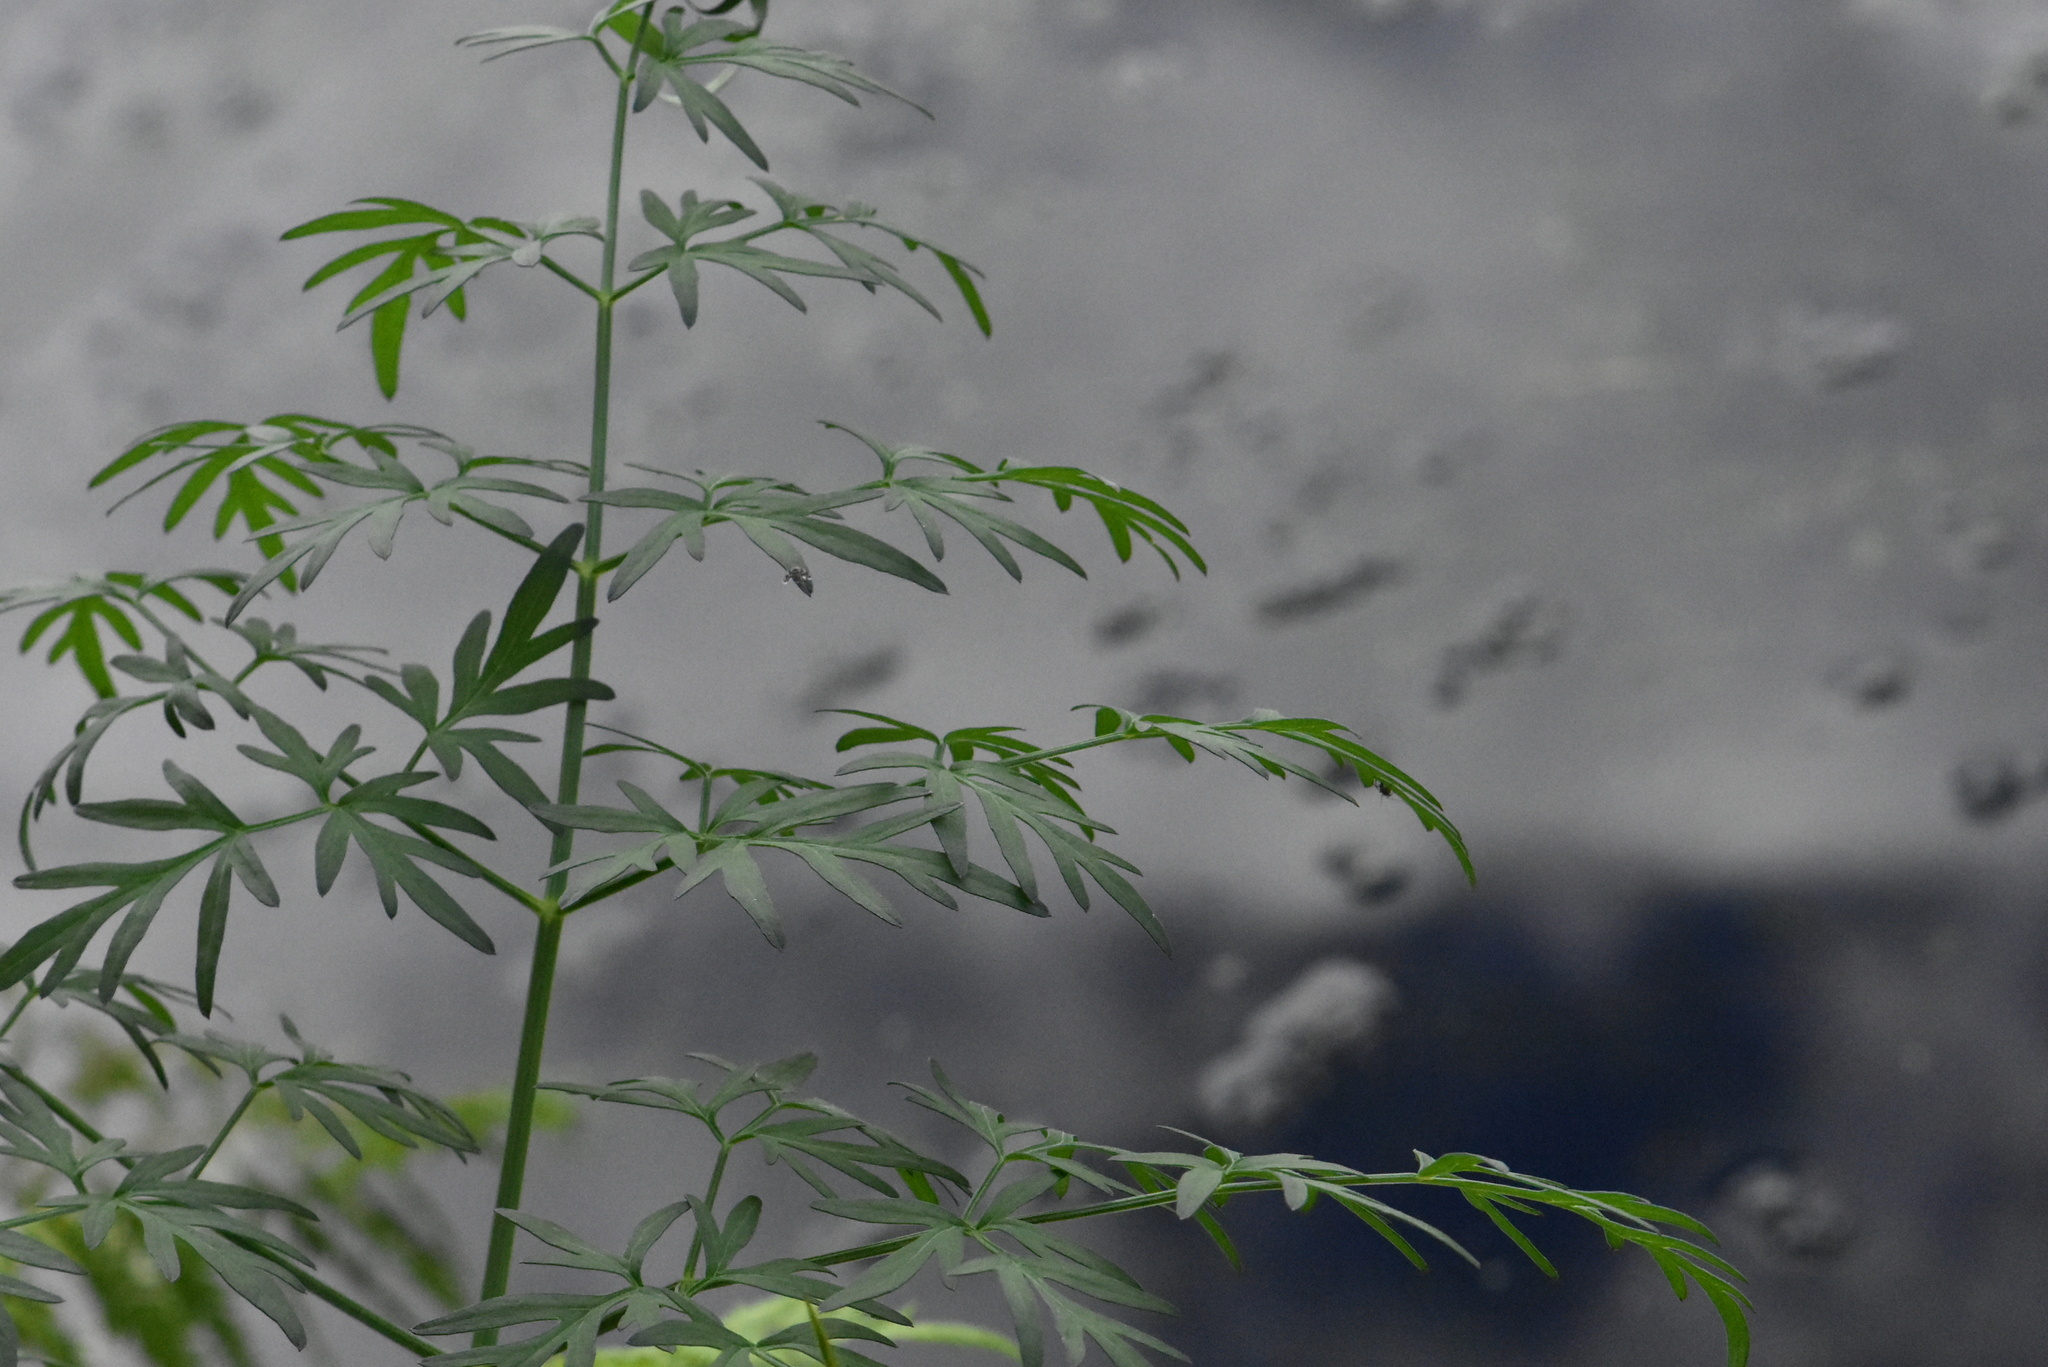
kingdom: Plantae
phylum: Tracheophyta
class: Magnoliopsida
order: Apiales
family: Apiaceae
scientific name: Apiaceae
